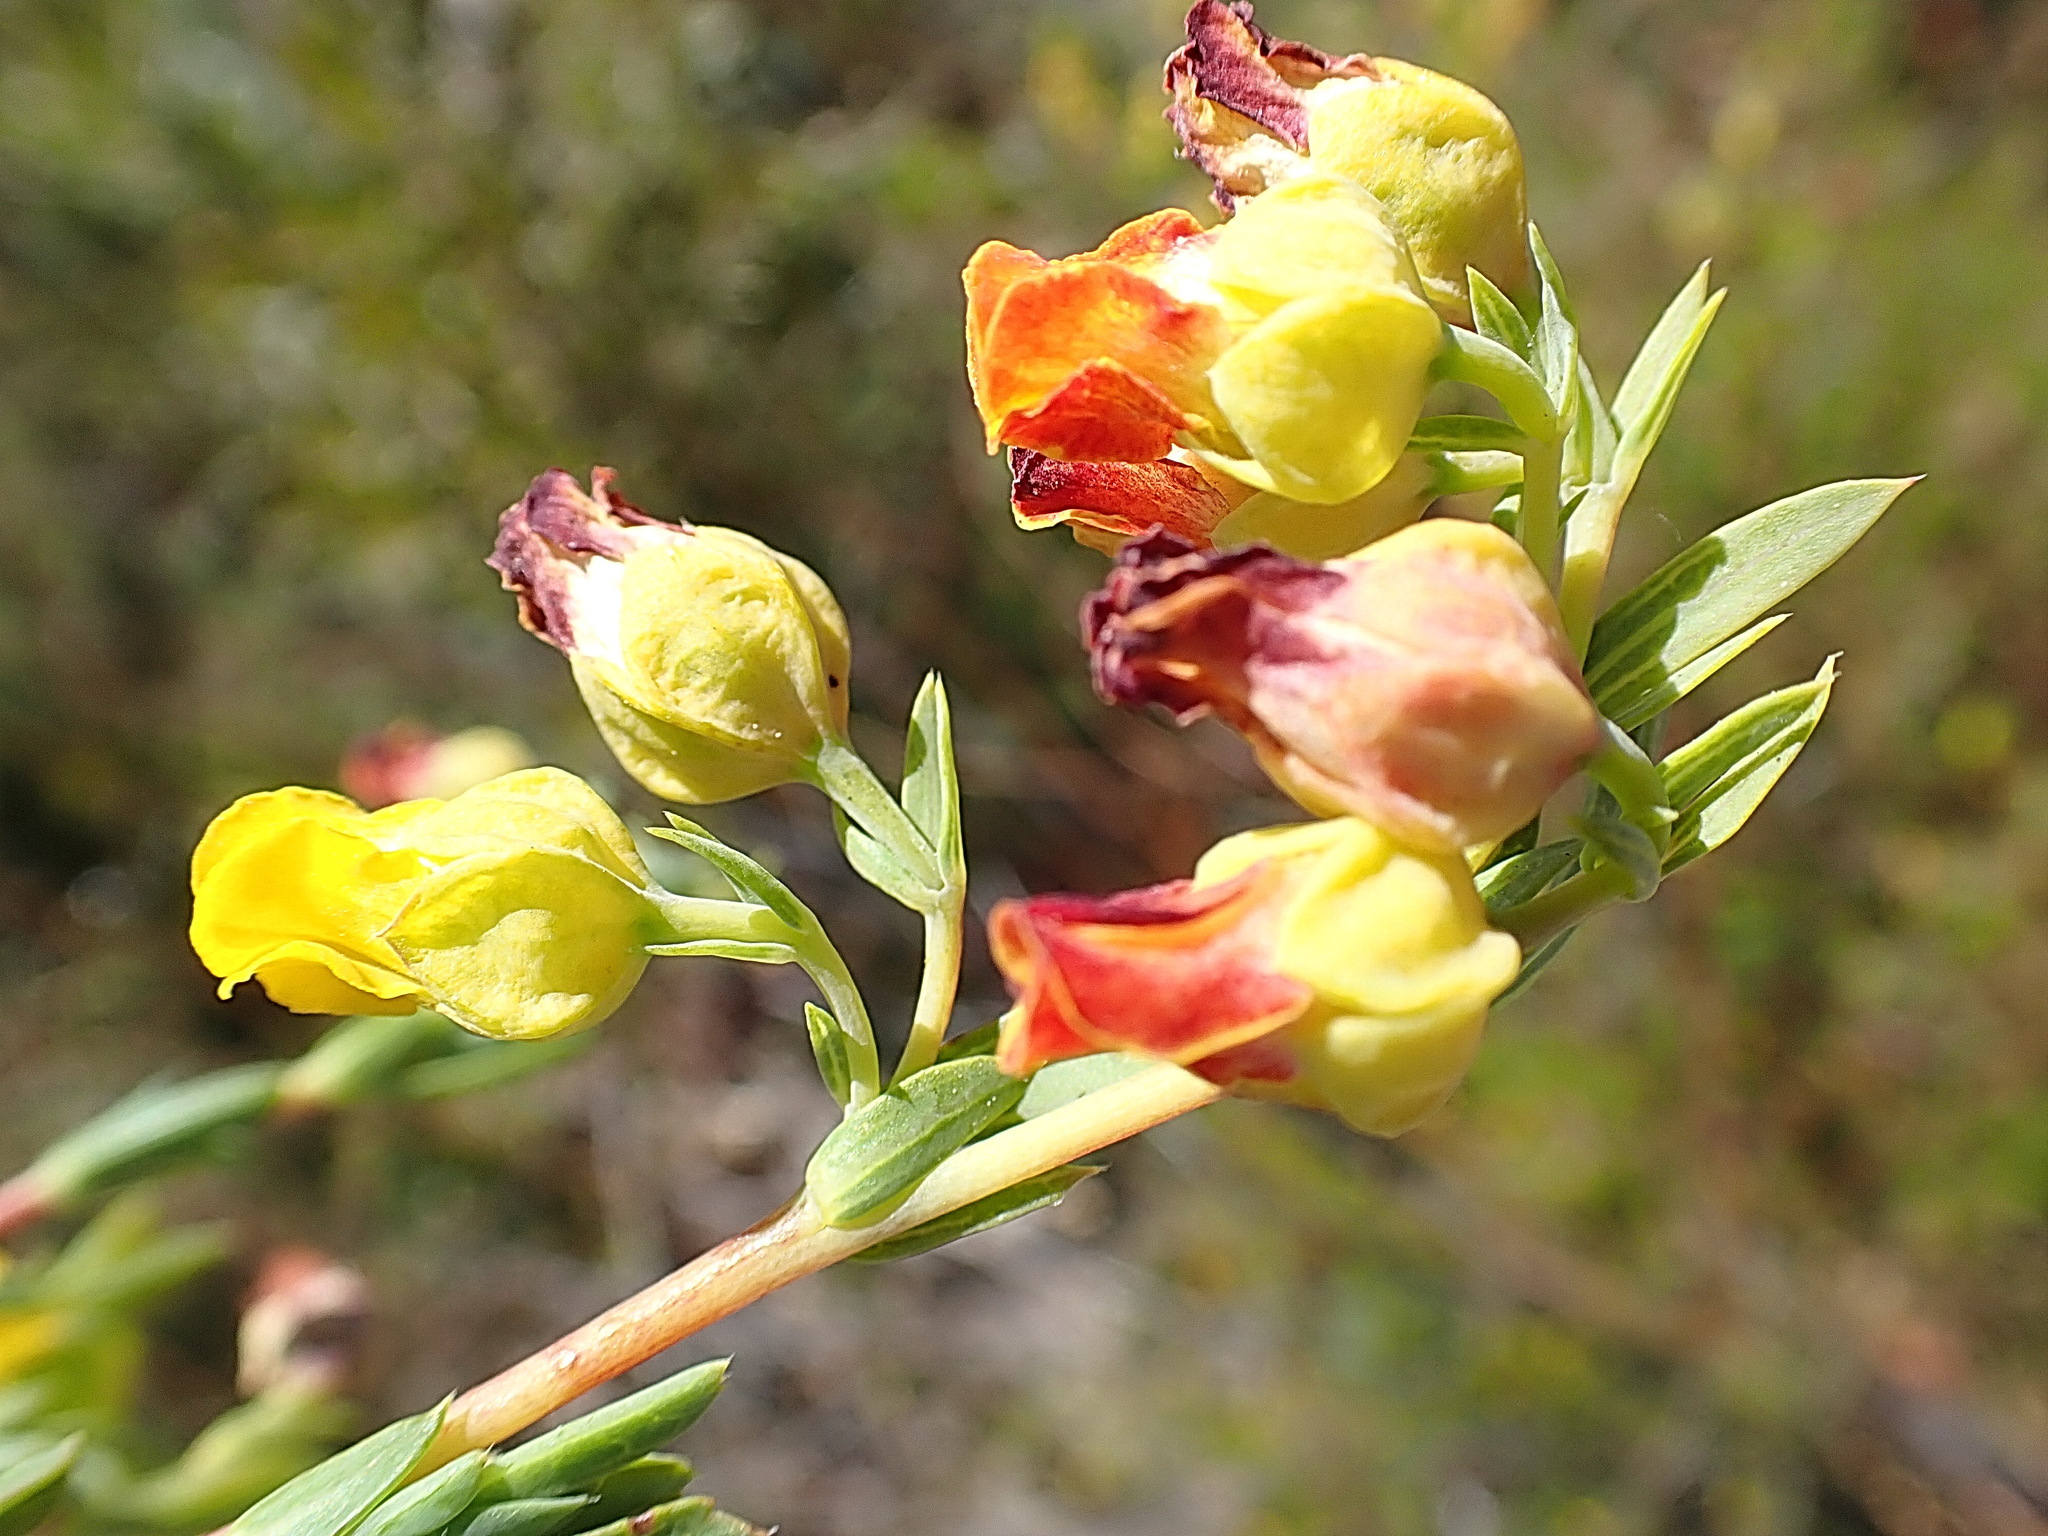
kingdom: Plantae
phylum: Tracheophyta
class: Magnoliopsida
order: Malvales
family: Malvaceae
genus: Hermannia
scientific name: Hermannia
